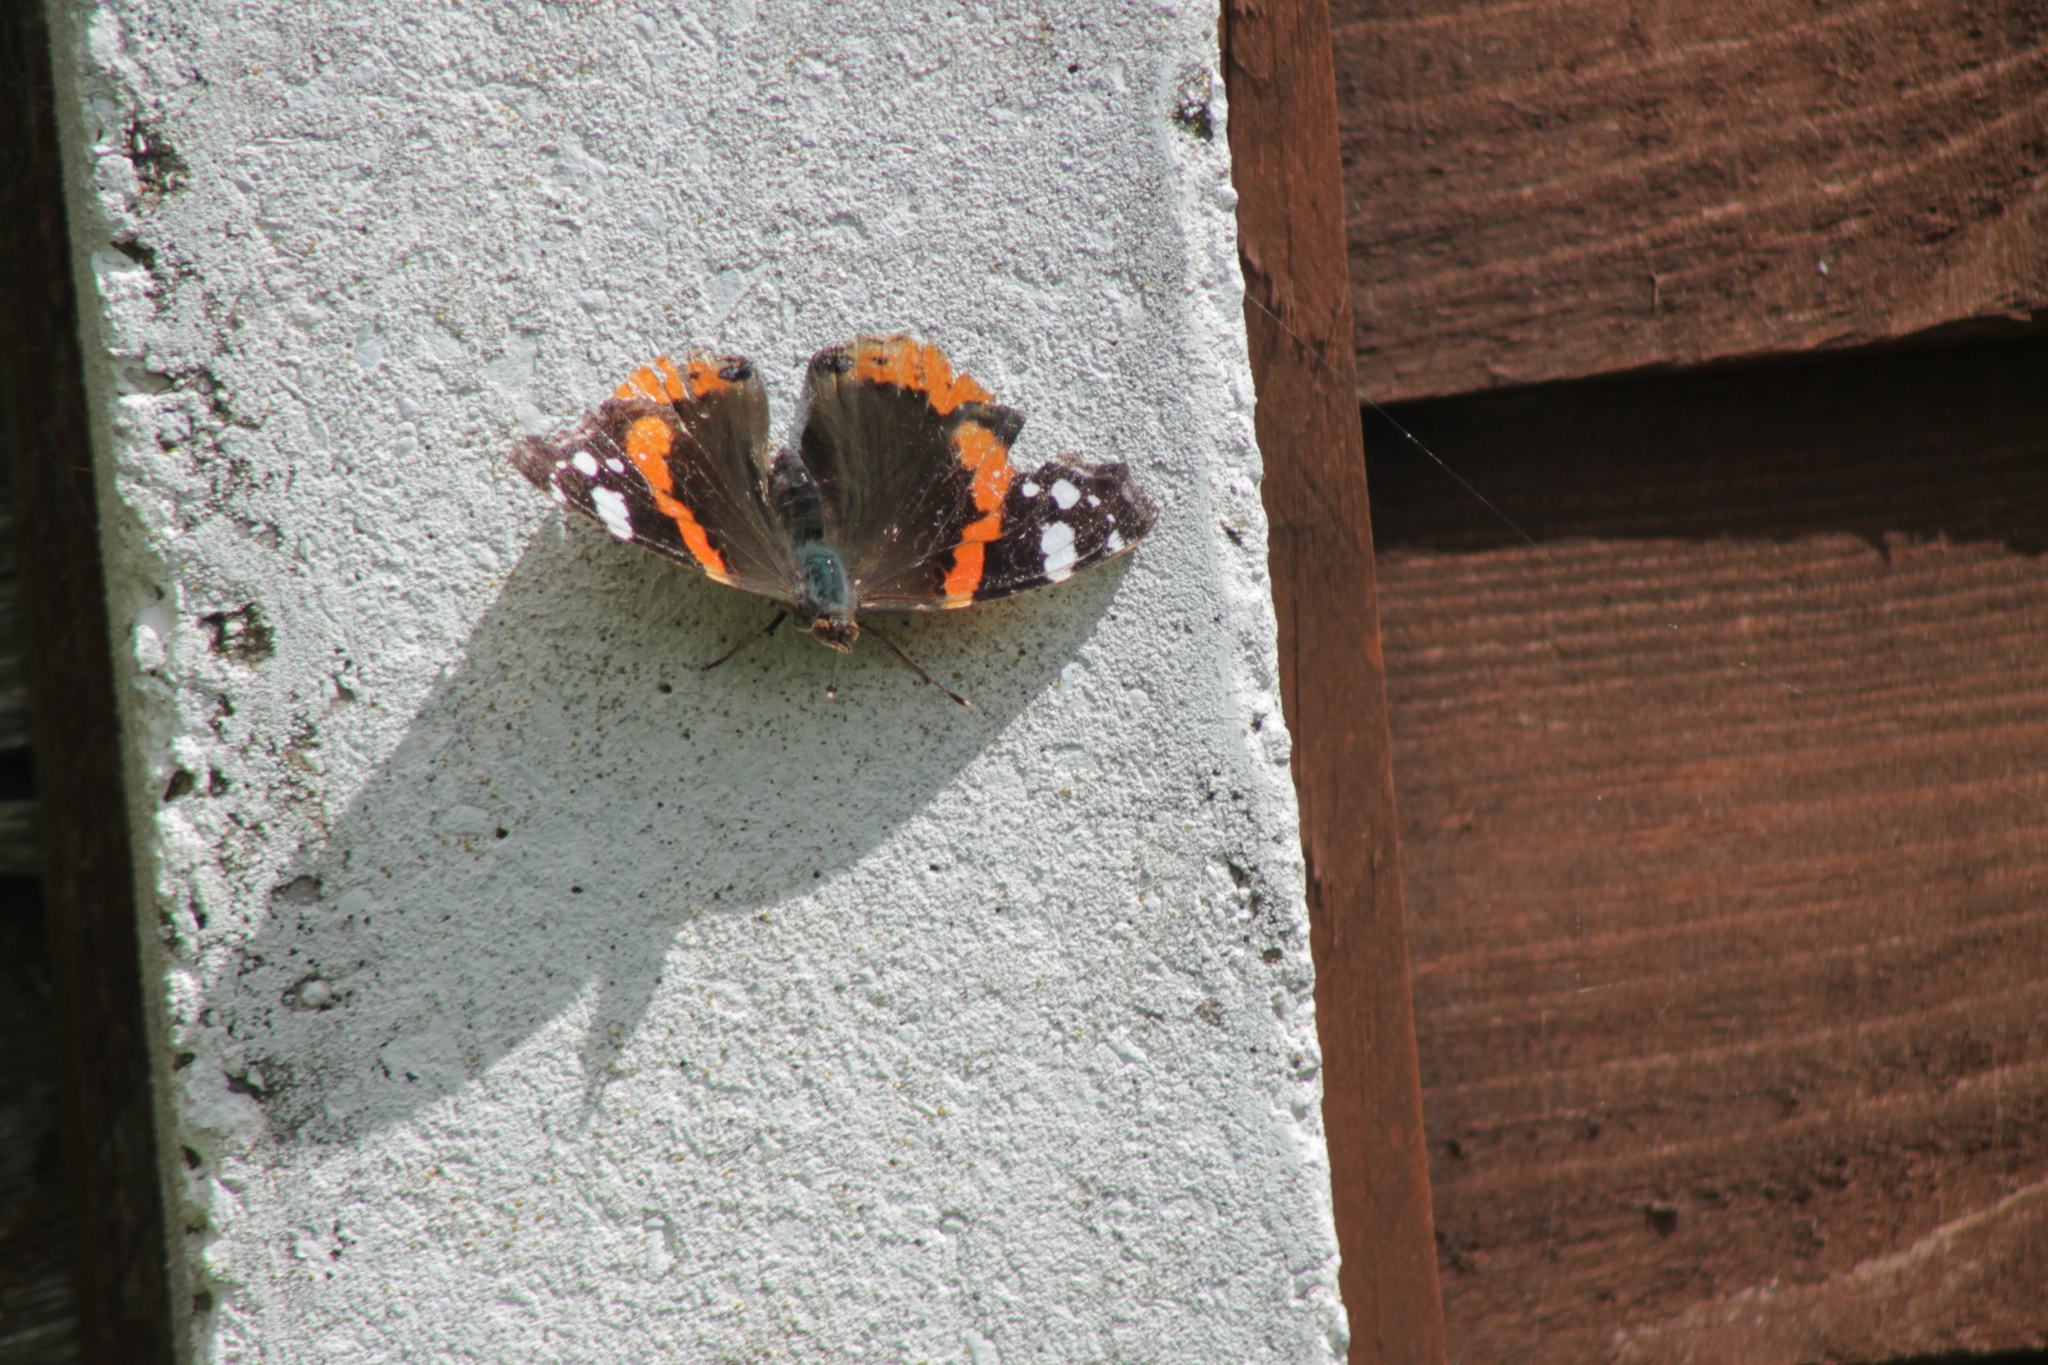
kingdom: Animalia
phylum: Arthropoda
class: Insecta
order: Lepidoptera
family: Nymphalidae
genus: Vanessa
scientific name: Vanessa atalanta
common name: Red admiral
